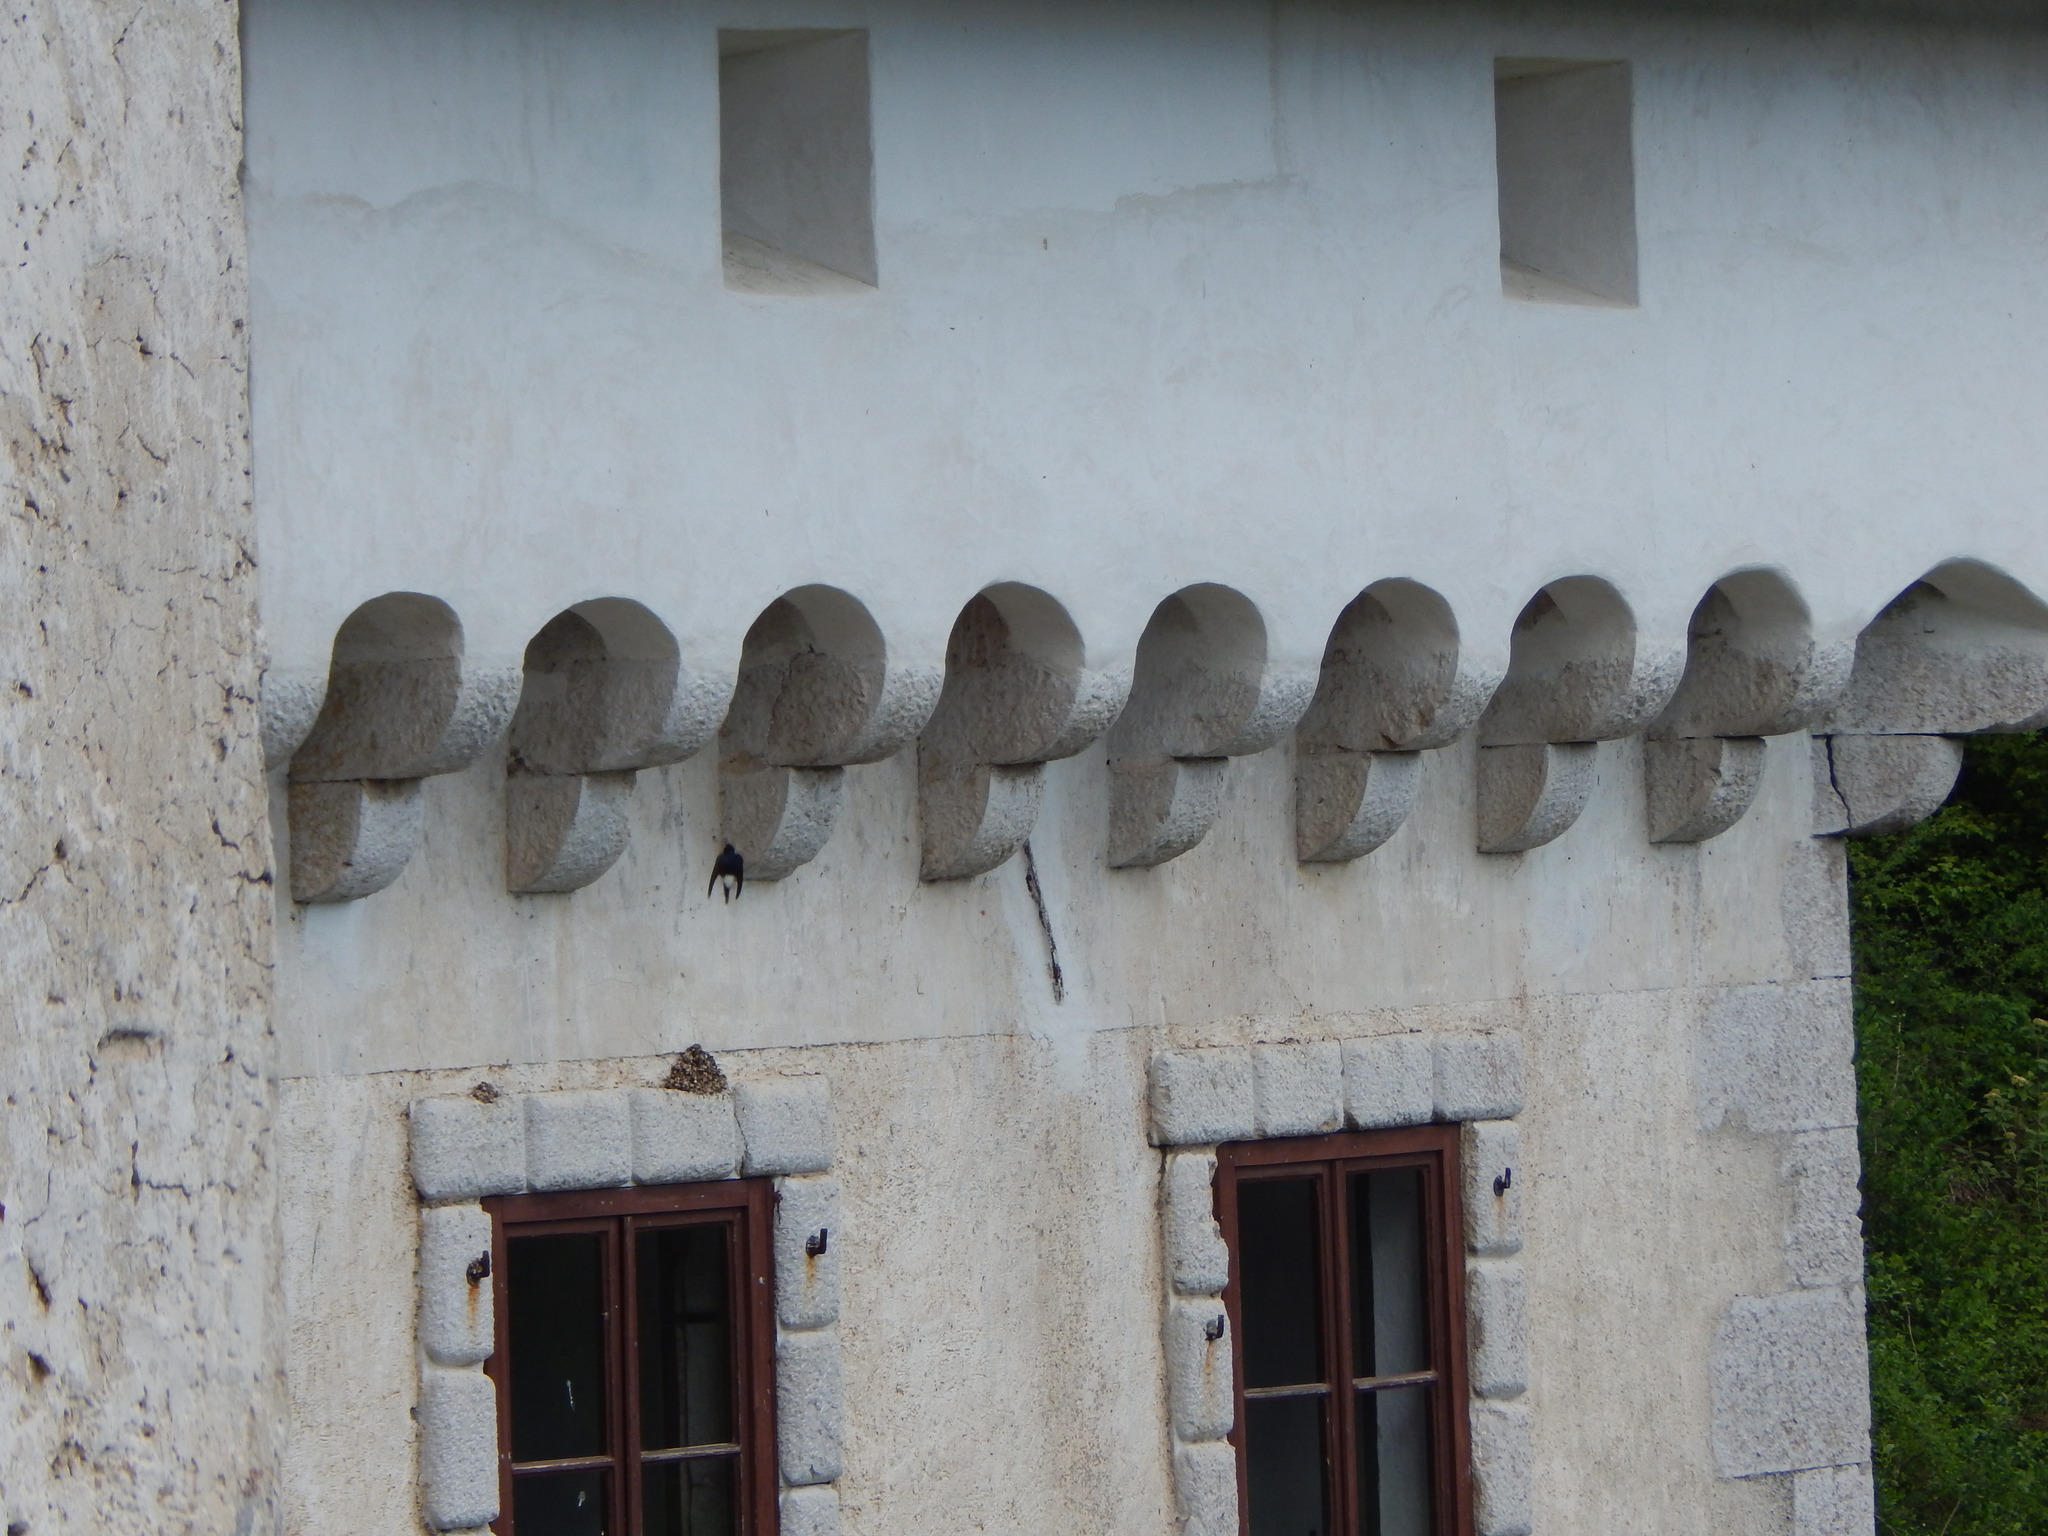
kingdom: Animalia
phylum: Chordata
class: Aves
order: Passeriformes
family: Hirundinidae
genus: Delichon
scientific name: Delichon urbicum
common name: Common house martin
